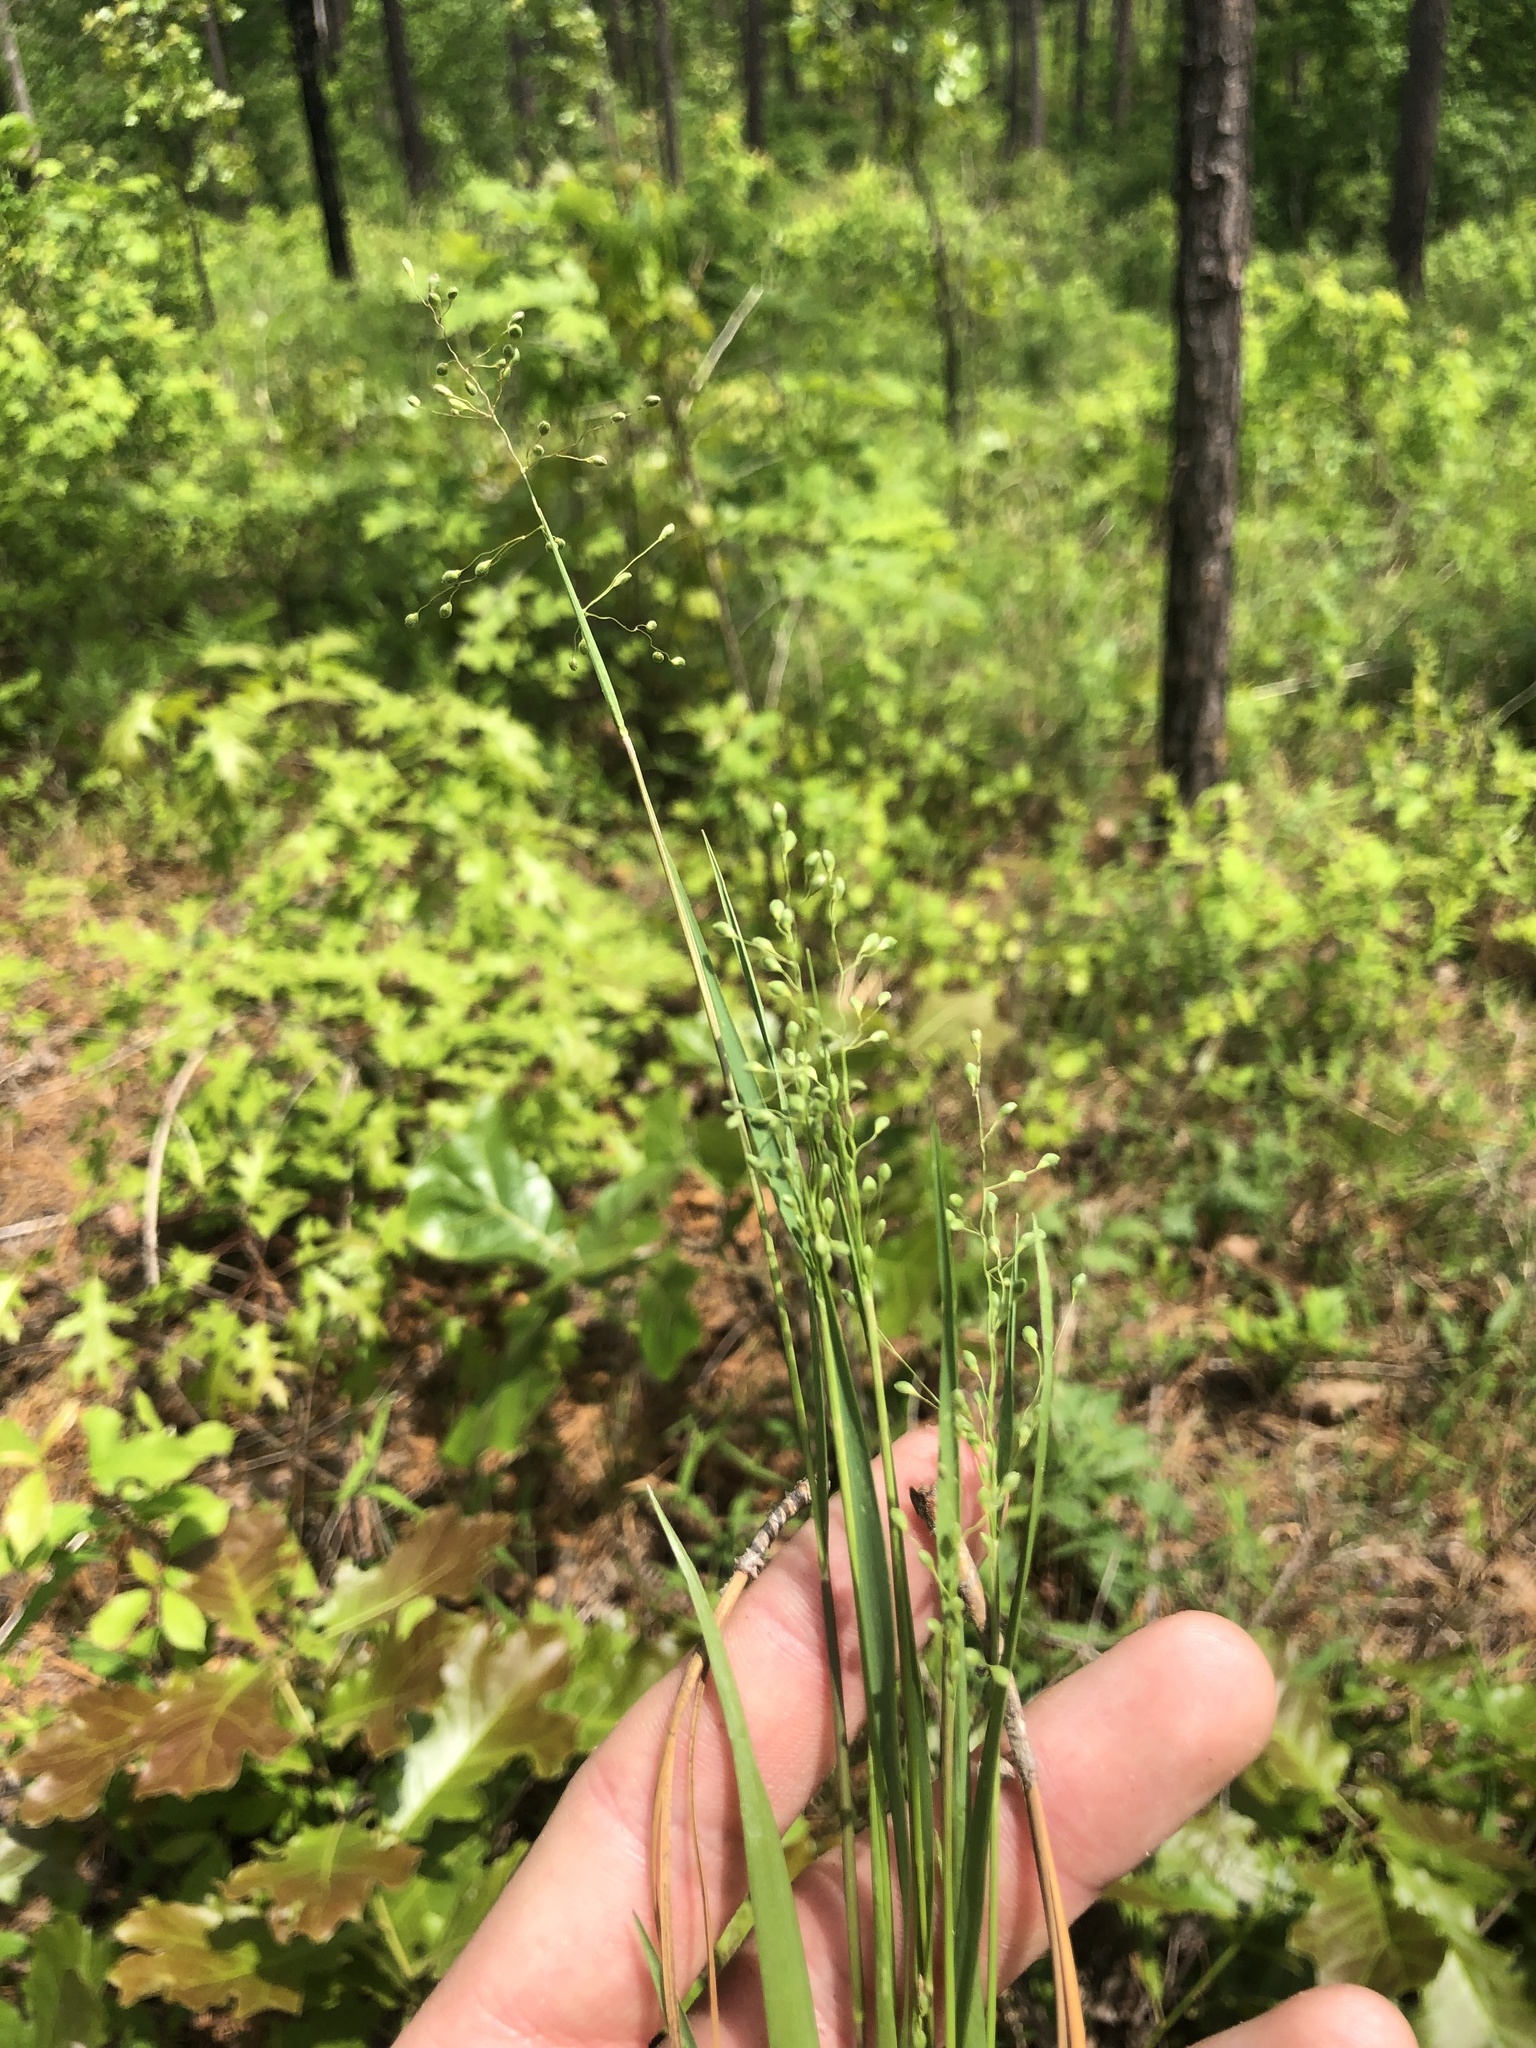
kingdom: Plantae
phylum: Tracheophyta
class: Liliopsida
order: Poales
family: Poaceae
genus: Dichanthelium
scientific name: Dichanthelium angustifolium
